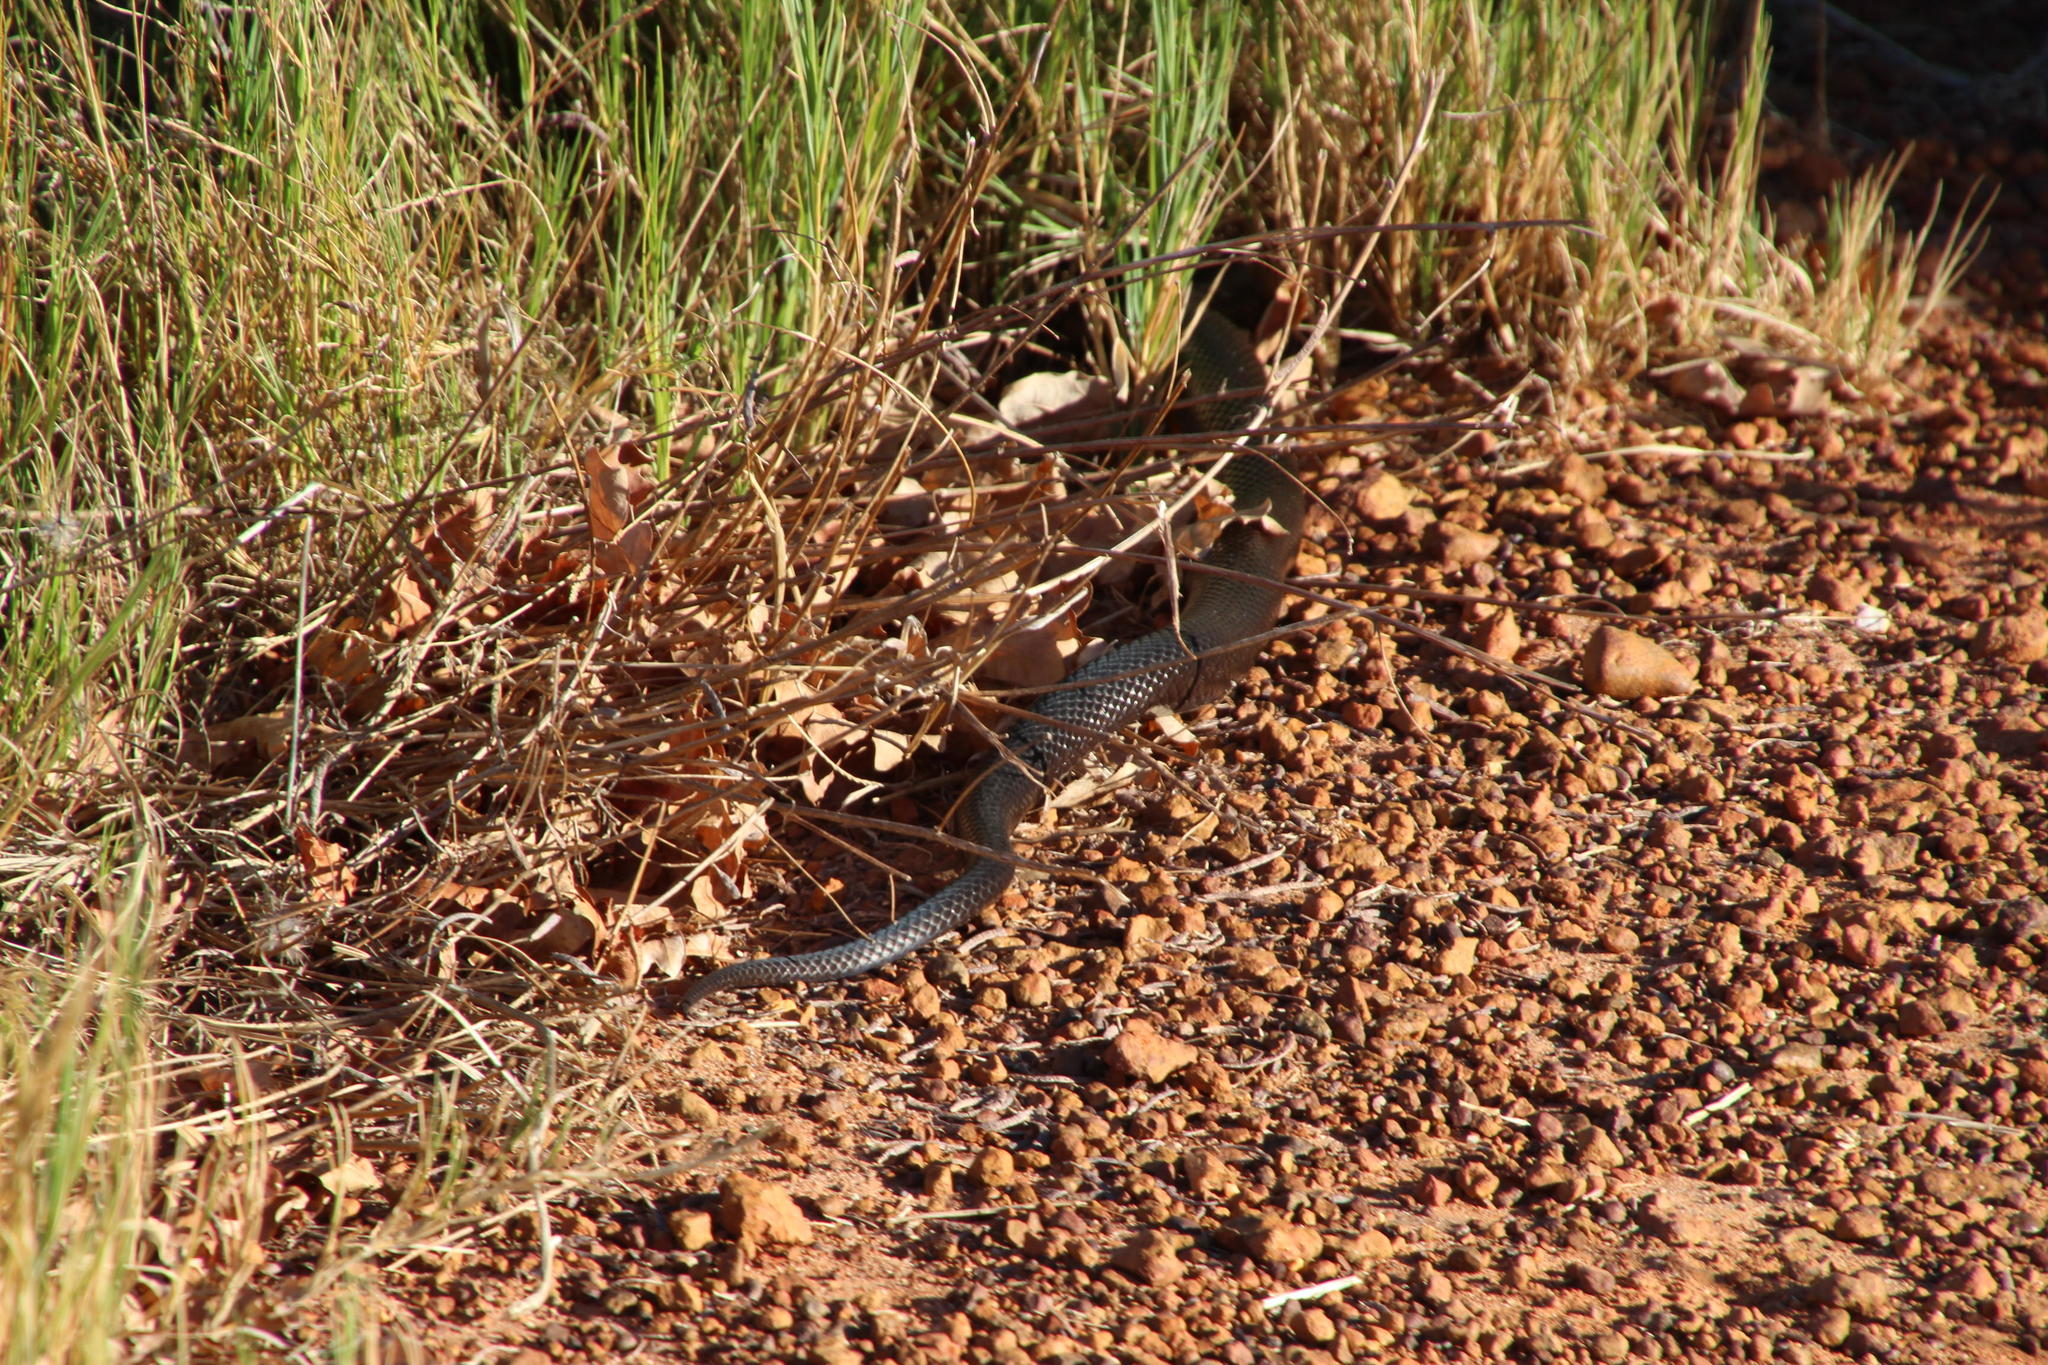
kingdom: Animalia
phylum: Chordata
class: Squamata
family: Pseudaspididae
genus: Pseudaspis
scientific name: Pseudaspis cana
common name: Mole snake
